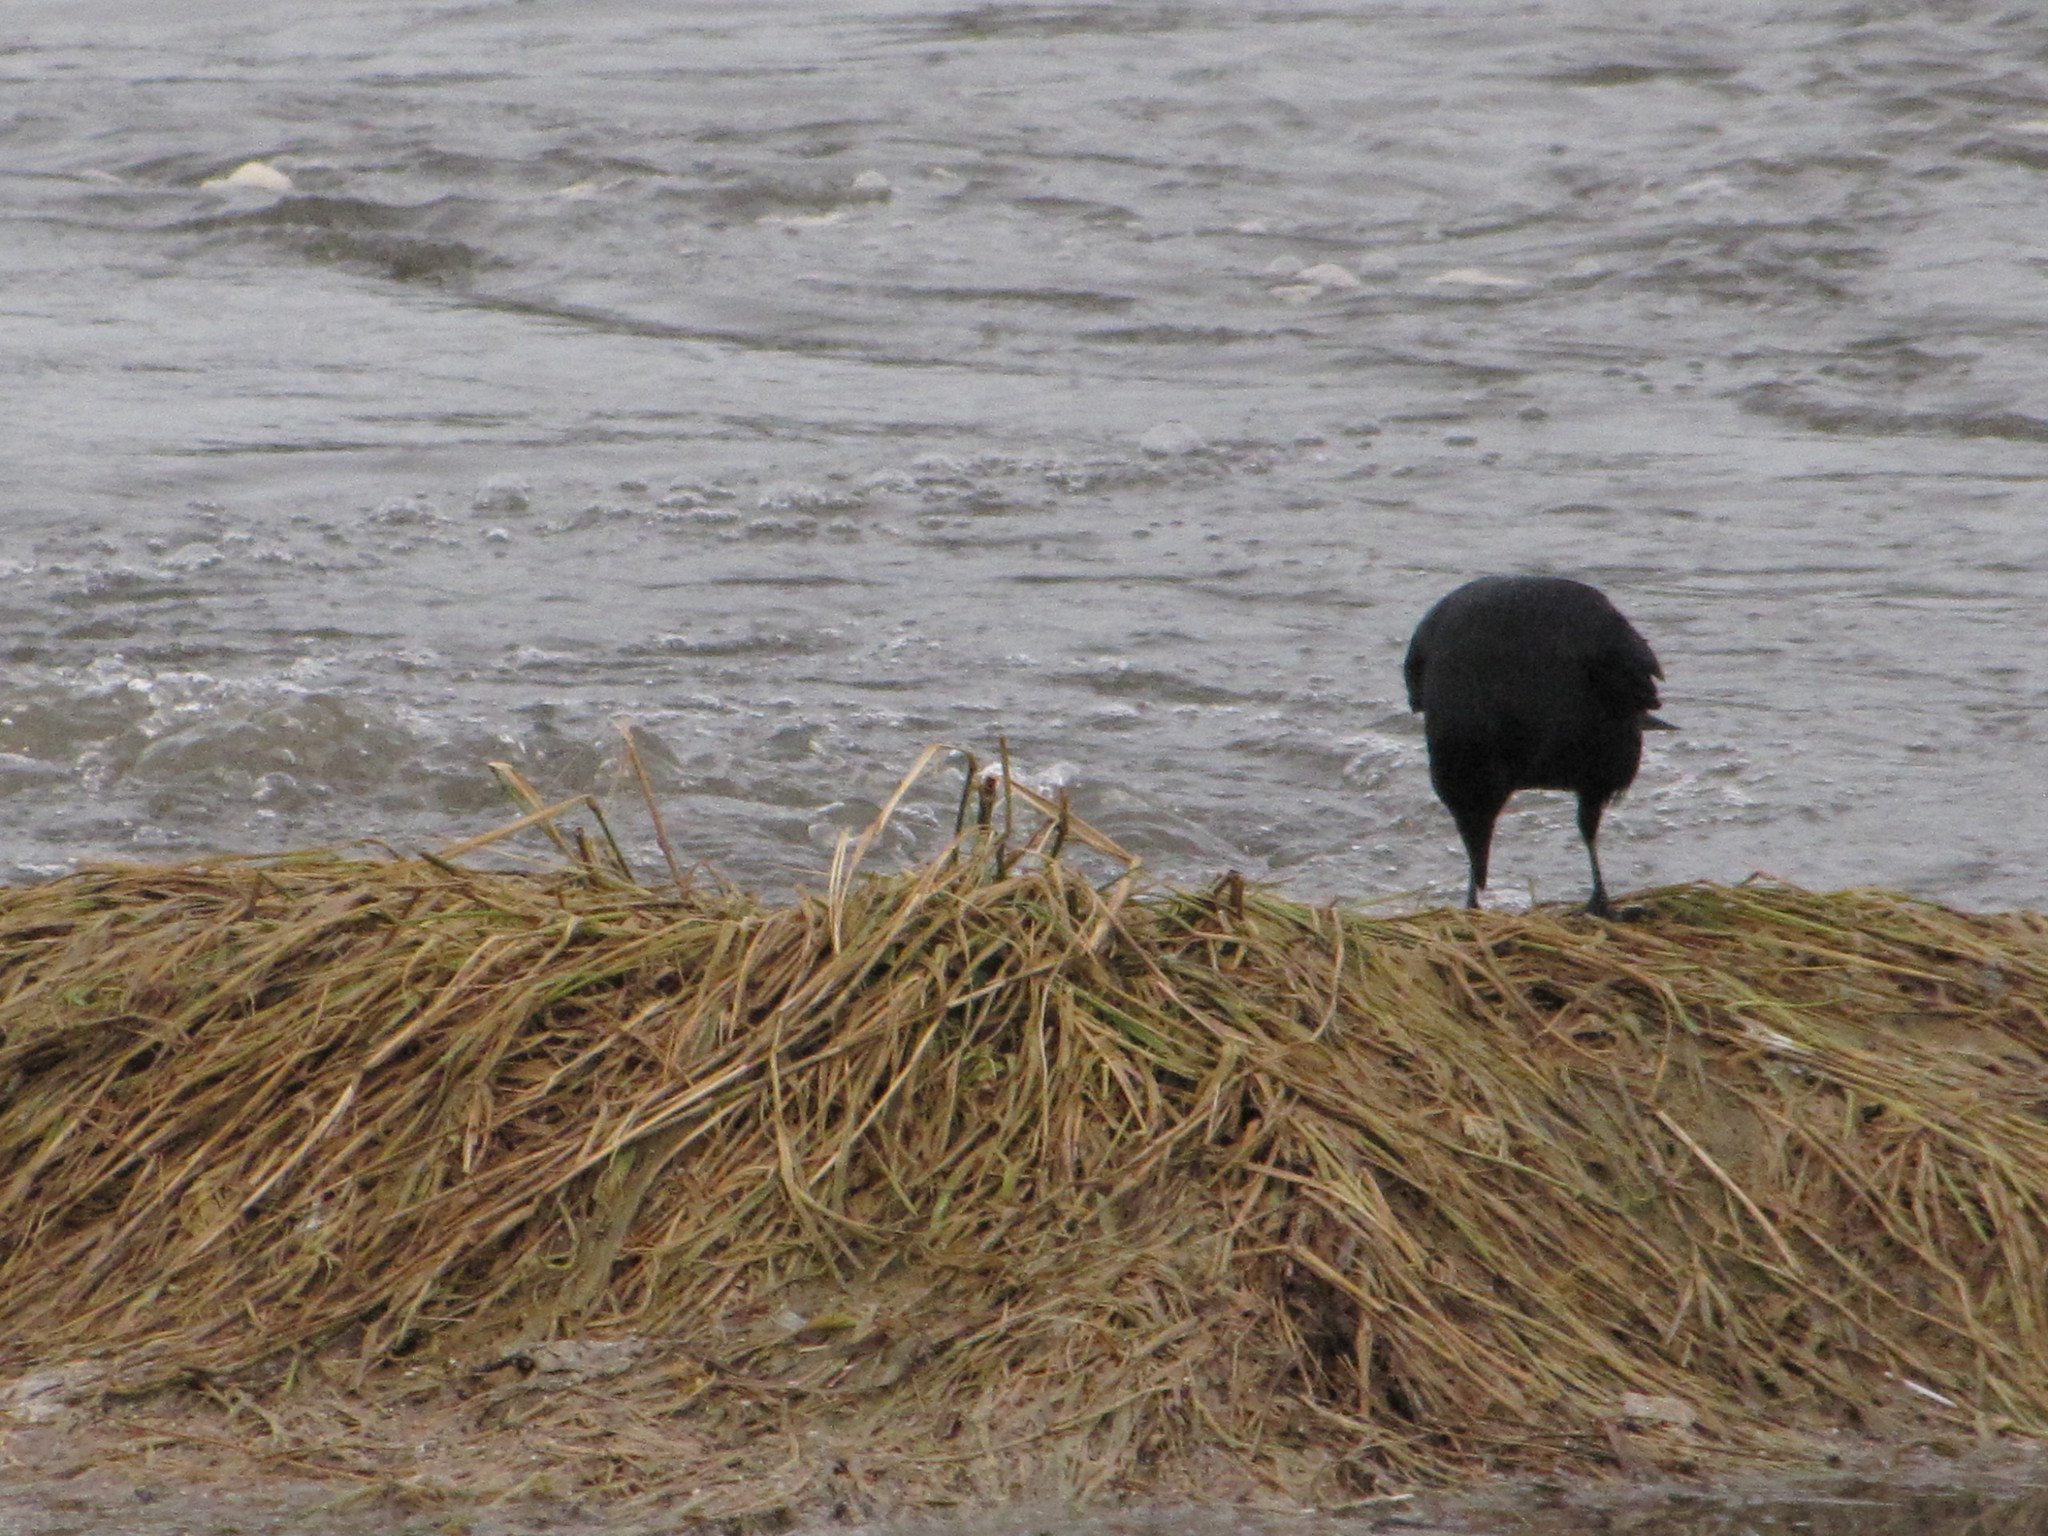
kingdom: Animalia
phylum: Chordata
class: Aves
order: Passeriformes
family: Corvidae
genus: Corvus
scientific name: Corvus brachyrhynchos
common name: American crow
